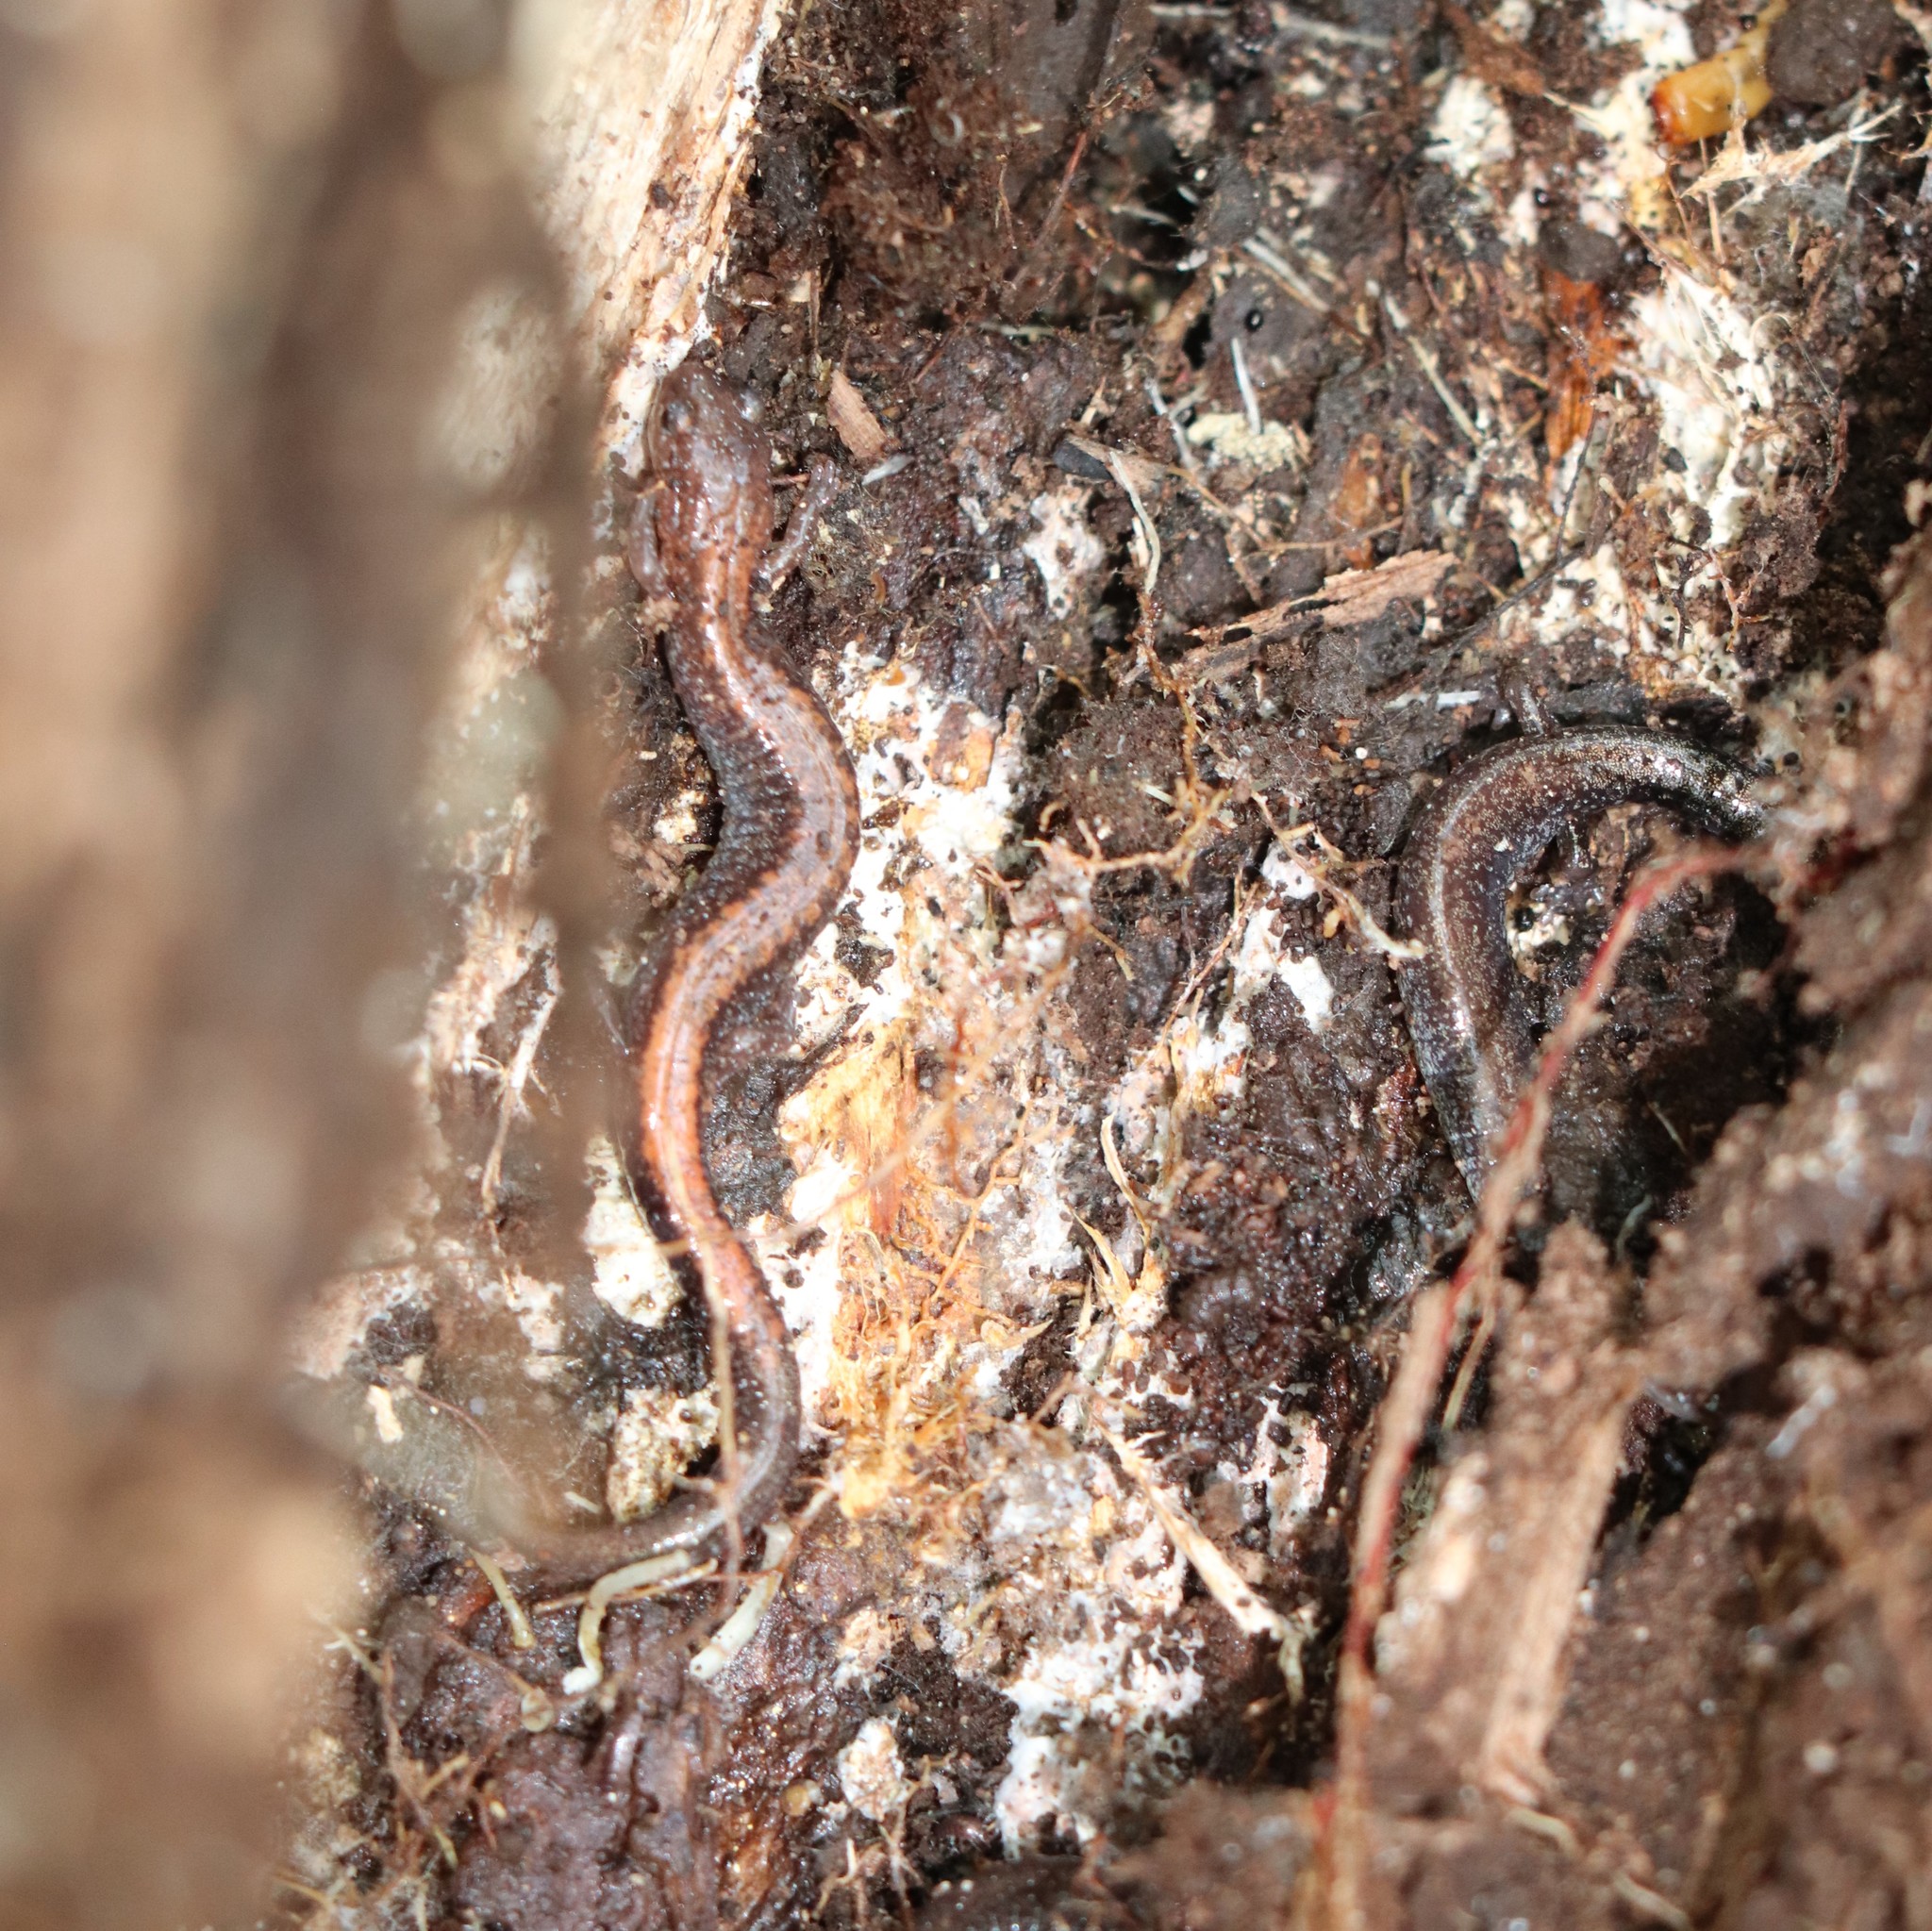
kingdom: Animalia
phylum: Chordata
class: Amphibia
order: Caudata
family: Plethodontidae
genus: Plethodon
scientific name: Plethodon cinereus
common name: Redback salamander
